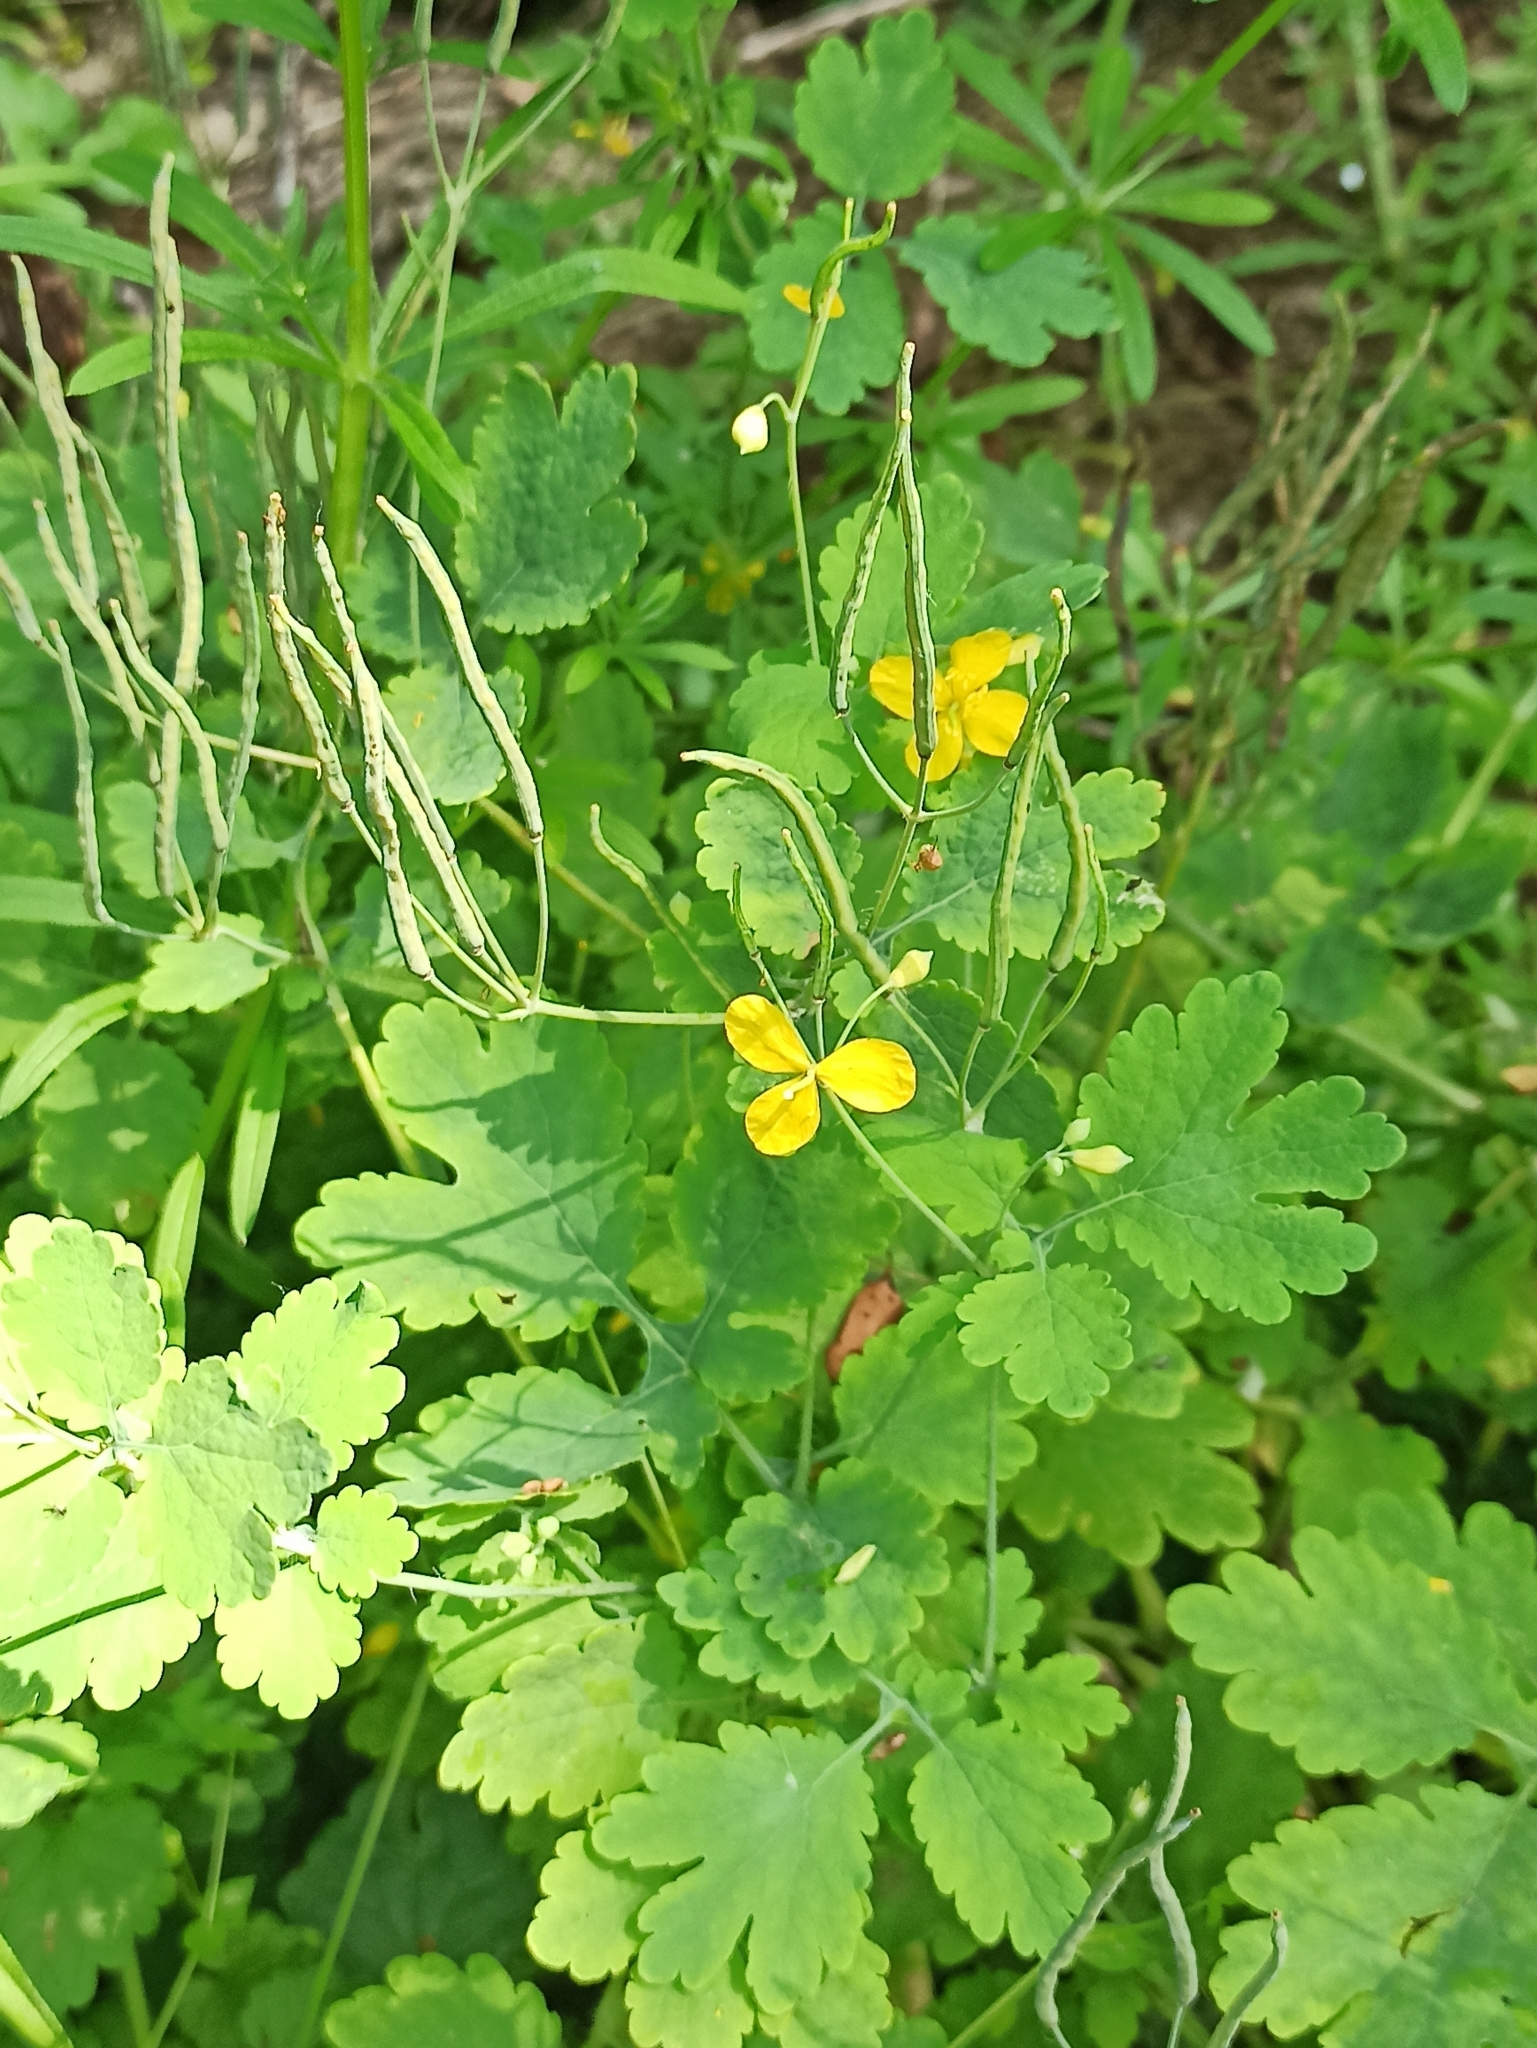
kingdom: Plantae
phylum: Tracheophyta
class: Magnoliopsida
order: Ranunculales
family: Papaveraceae
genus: Chelidonium
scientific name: Chelidonium majus
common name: Greater celandine
